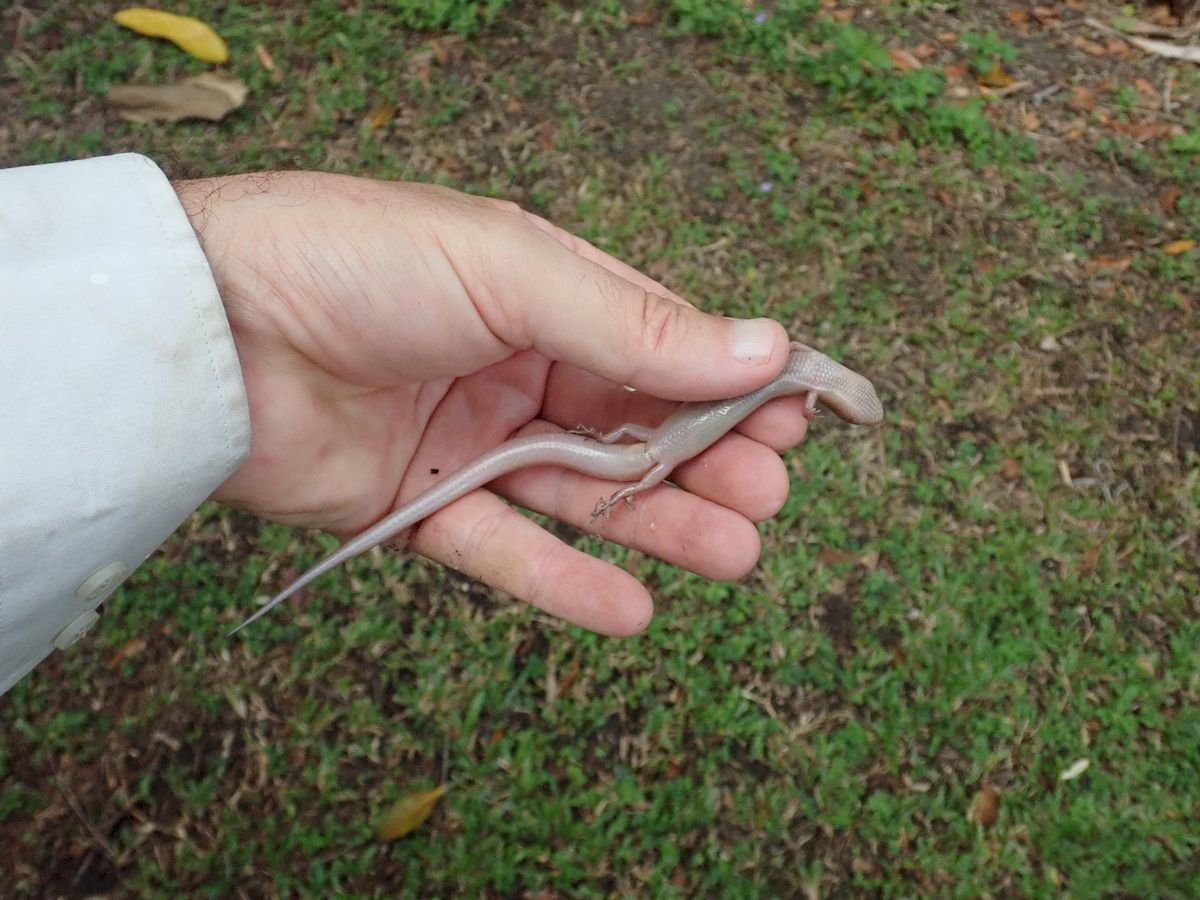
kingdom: Animalia
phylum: Chordata
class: Squamata
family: Scincidae
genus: Glaphyromorphus
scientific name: Glaphyromorphus nigricaudis
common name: Black-tailed bar-lipped skink
